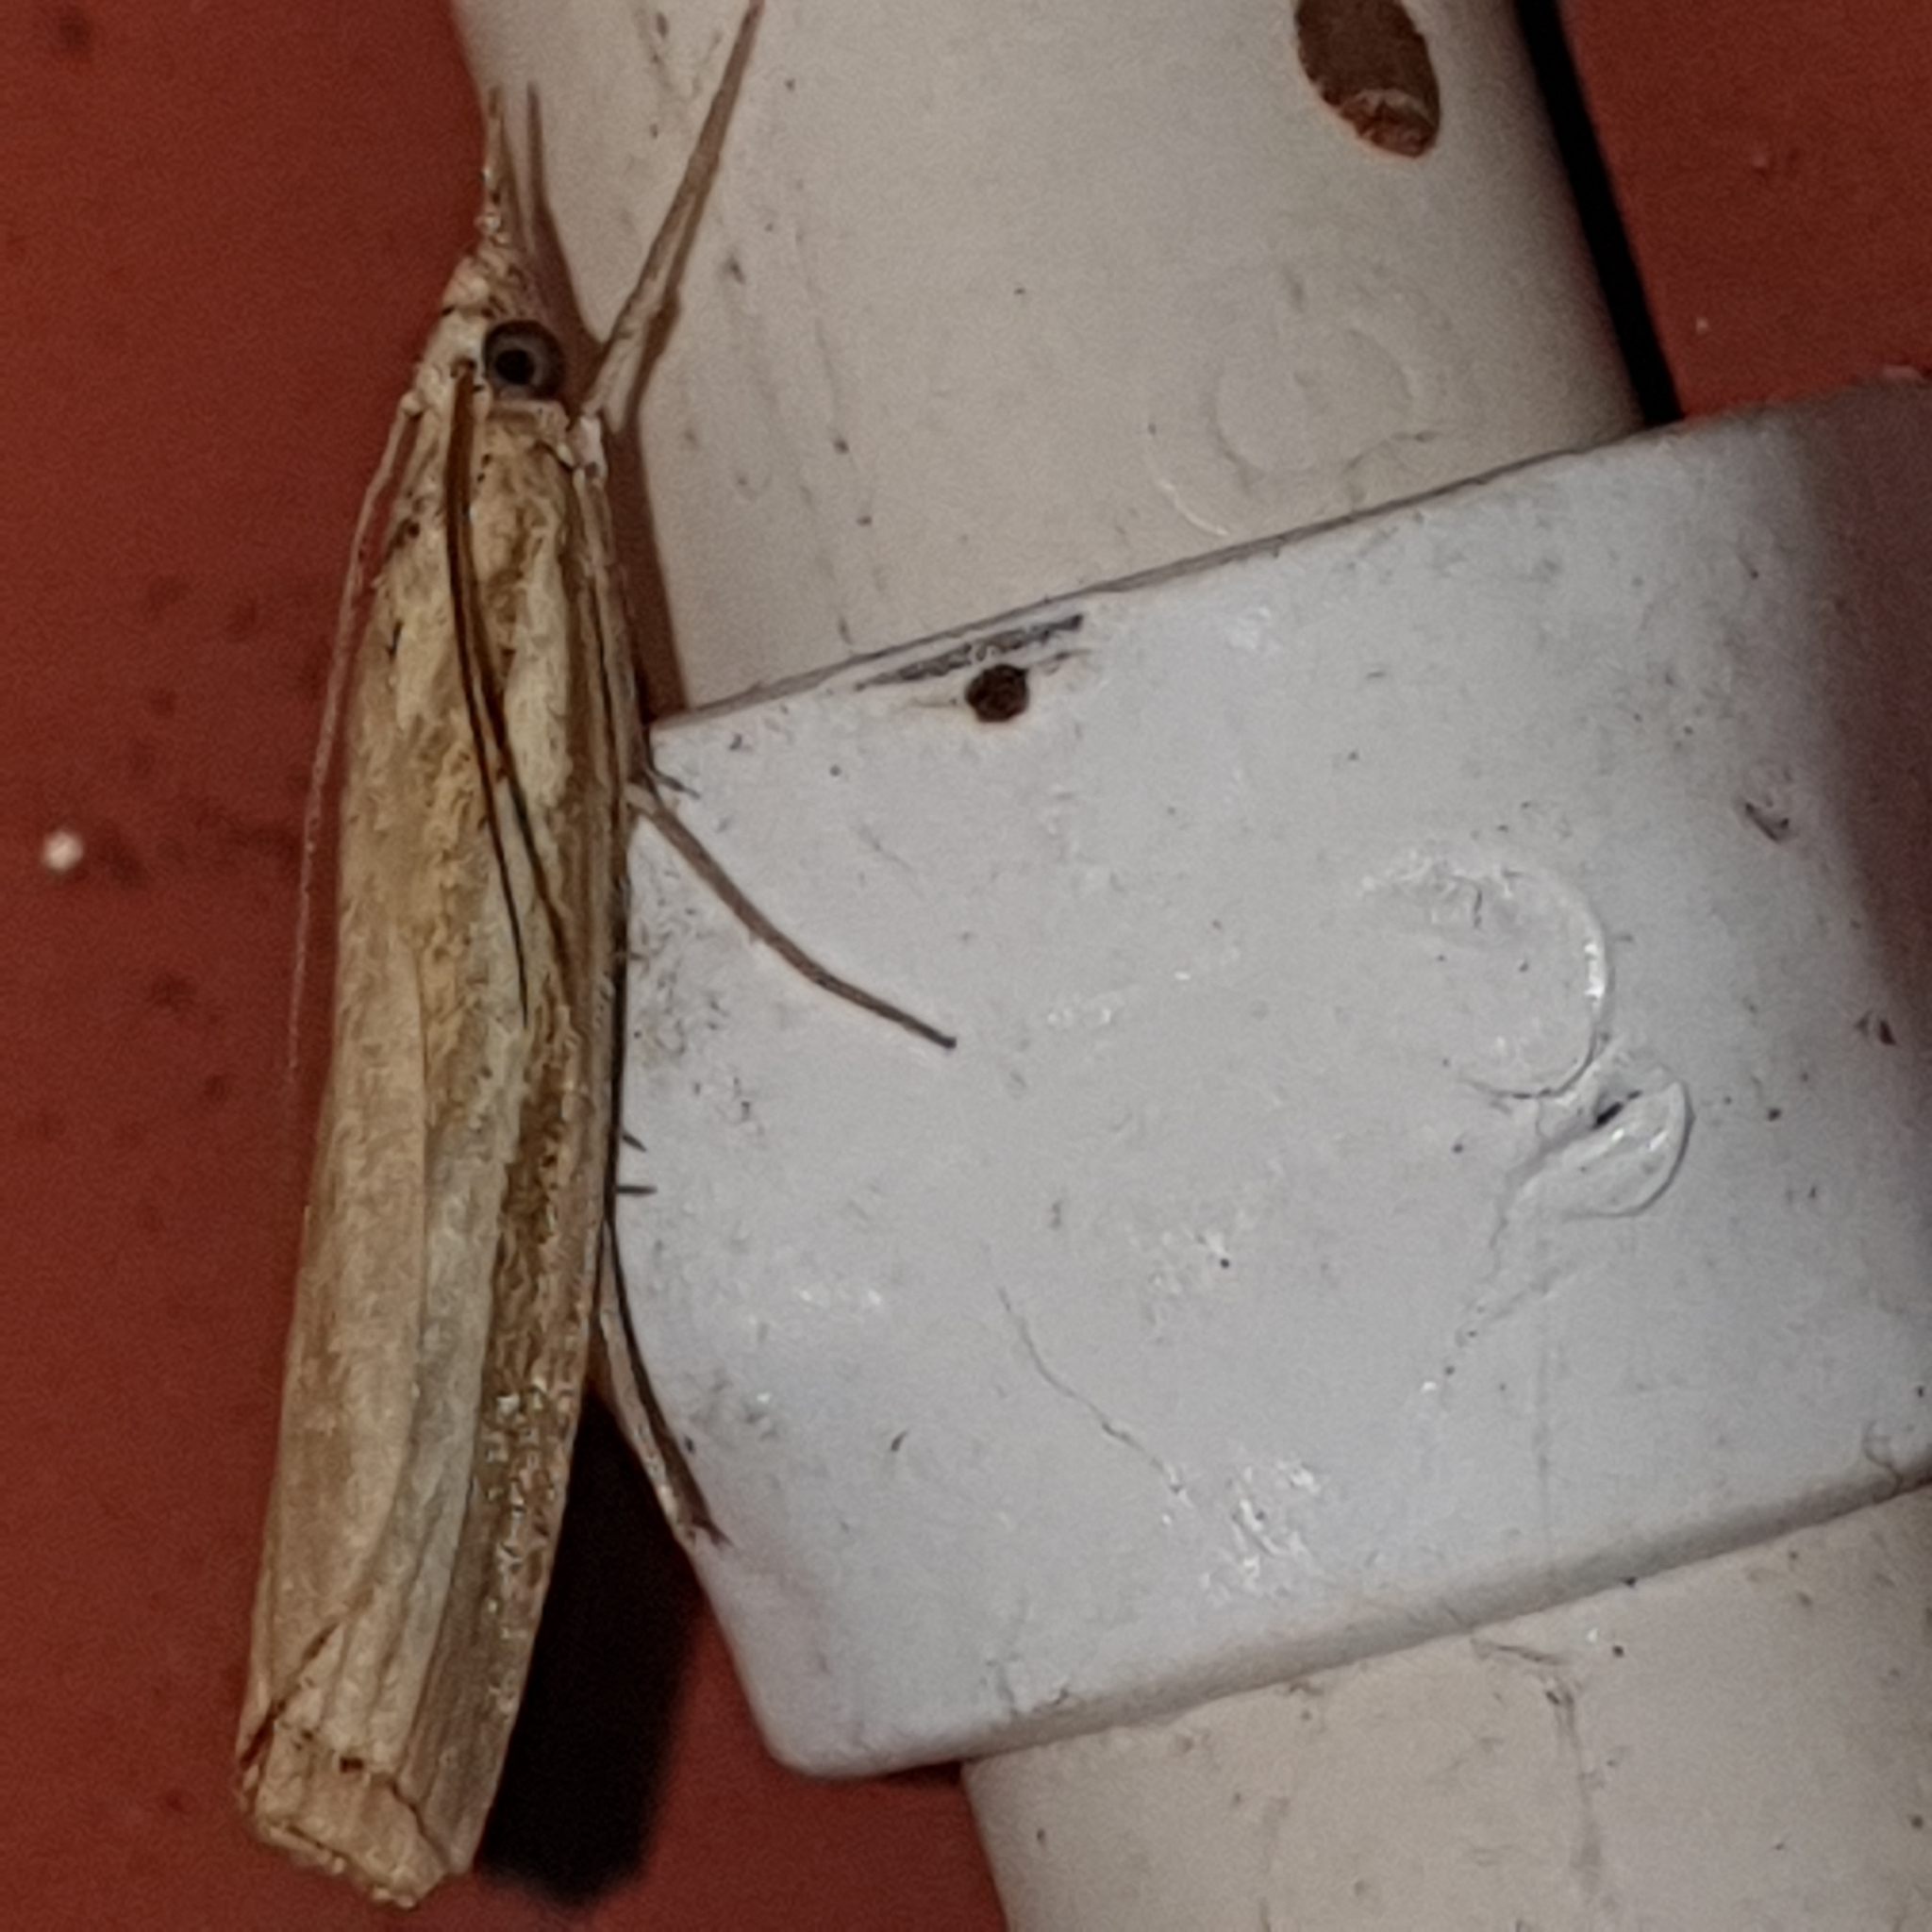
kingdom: Animalia
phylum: Arthropoda
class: Insecta
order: Lepidoptera
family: Crambidae
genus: Agriphila
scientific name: Agriphila tristellus
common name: Common grass-veneer
